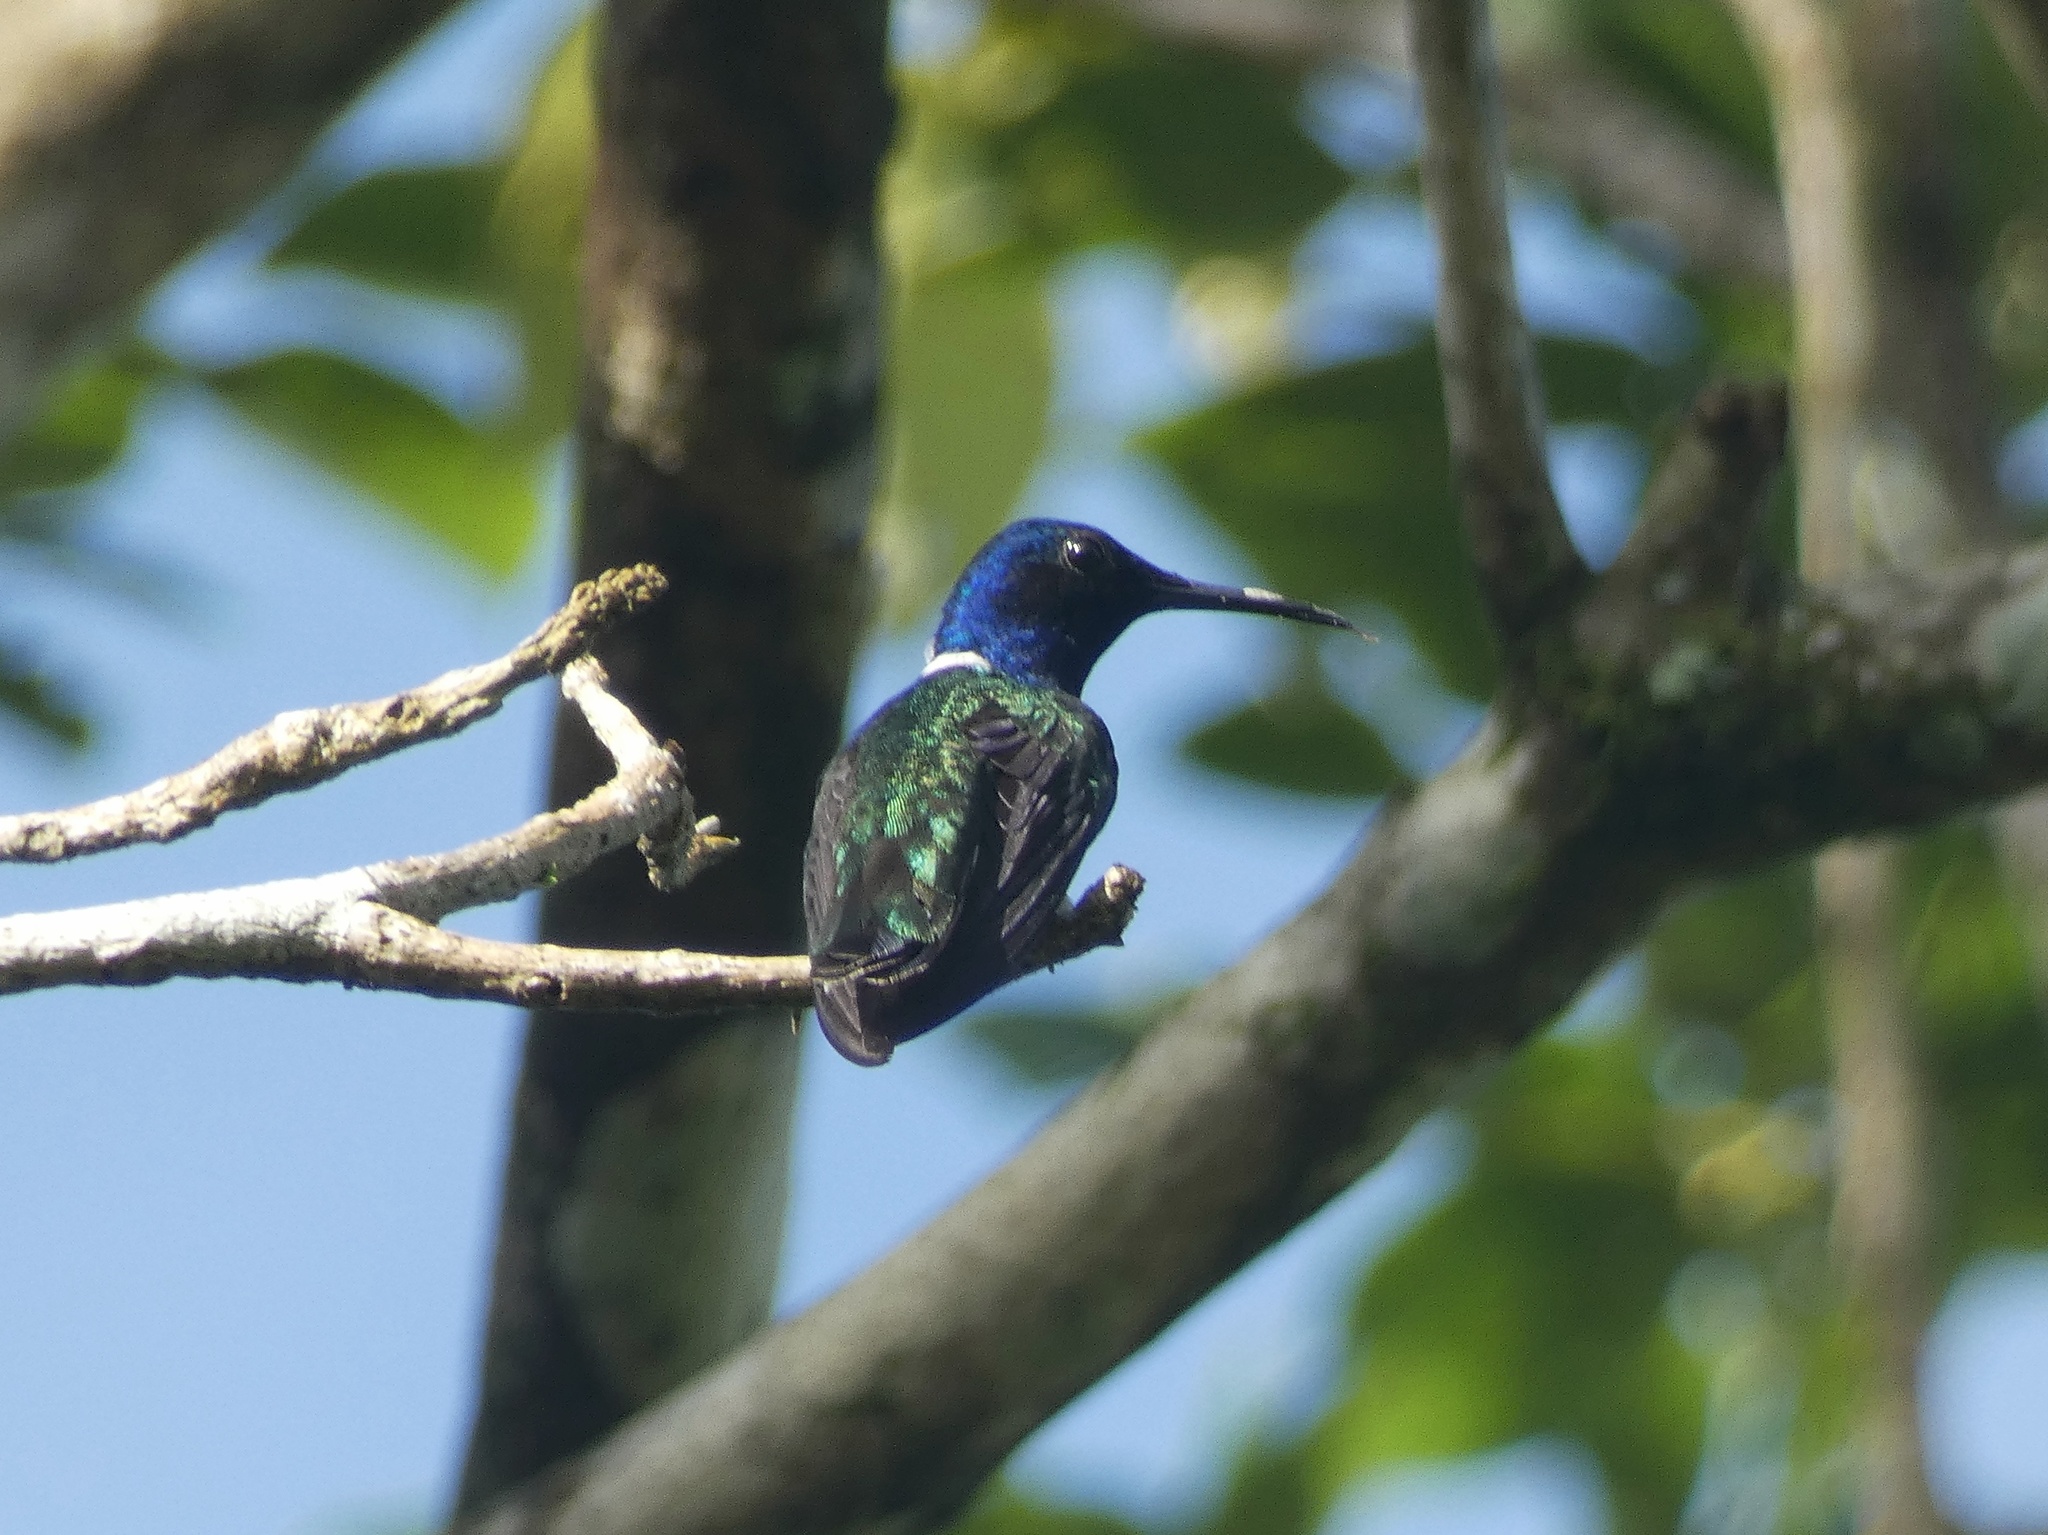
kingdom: Animalia
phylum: Chordata
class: Aves
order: Apodiformes
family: Trochilidae
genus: Florisuga
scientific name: Florisuga mellivora
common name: White-necked jacobin
